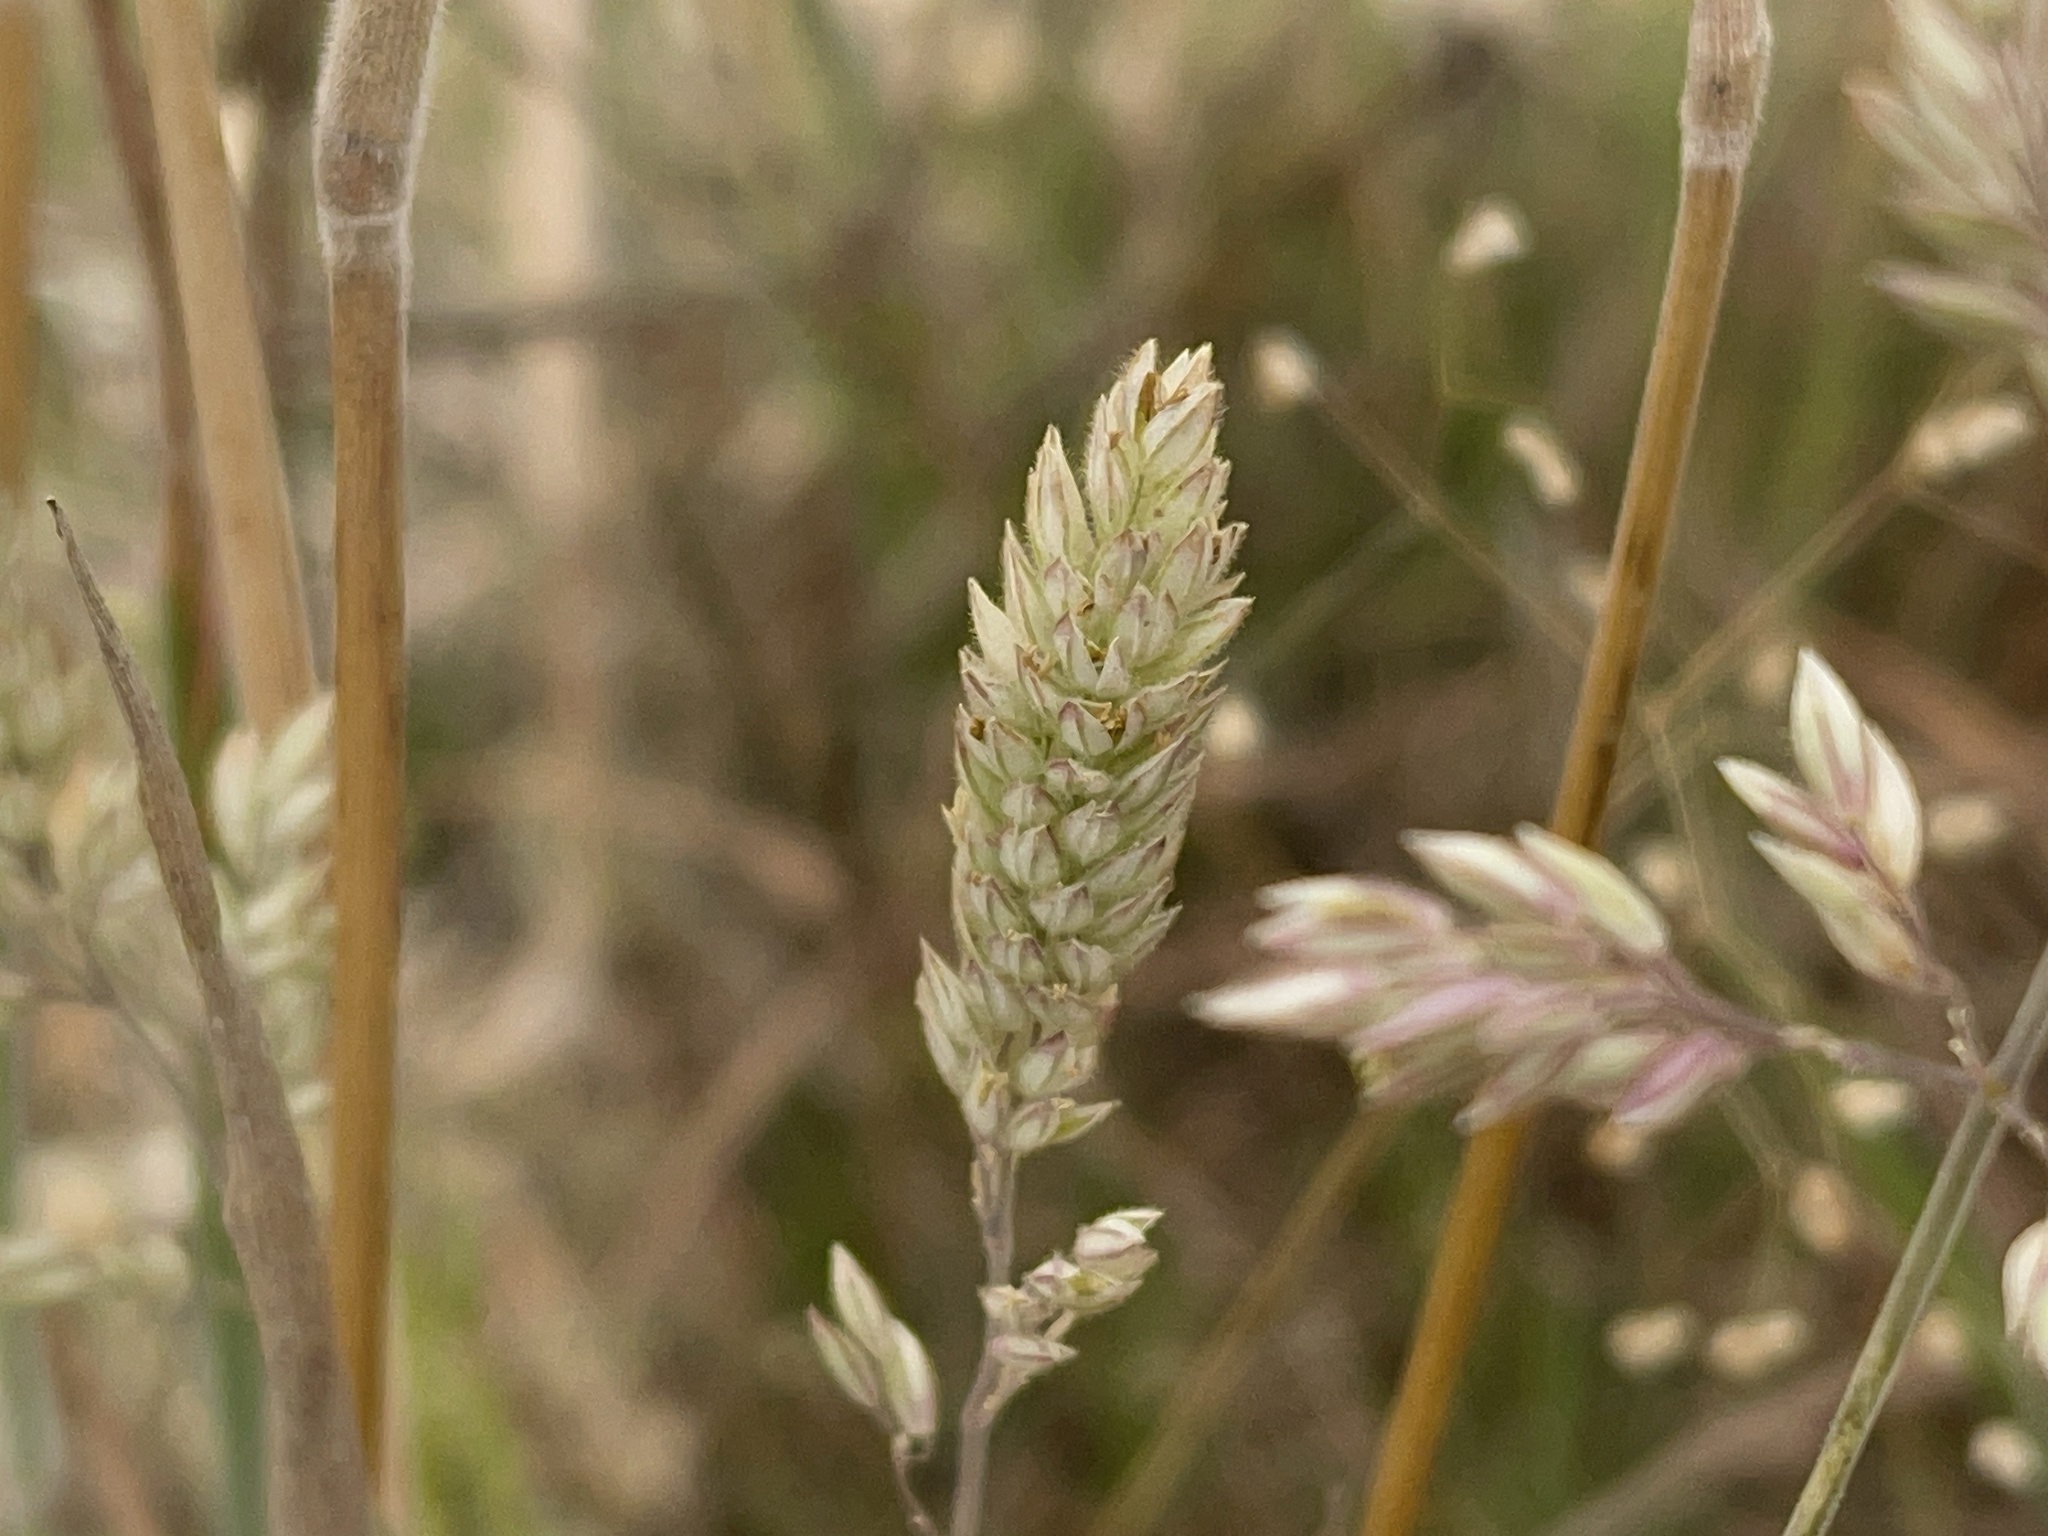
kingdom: Plantae
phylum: Tracheophyta
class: Liliopsida
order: Poales
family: Poaceae
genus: Holcus
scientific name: Holcus lanatus
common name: Yorkshire-fog
